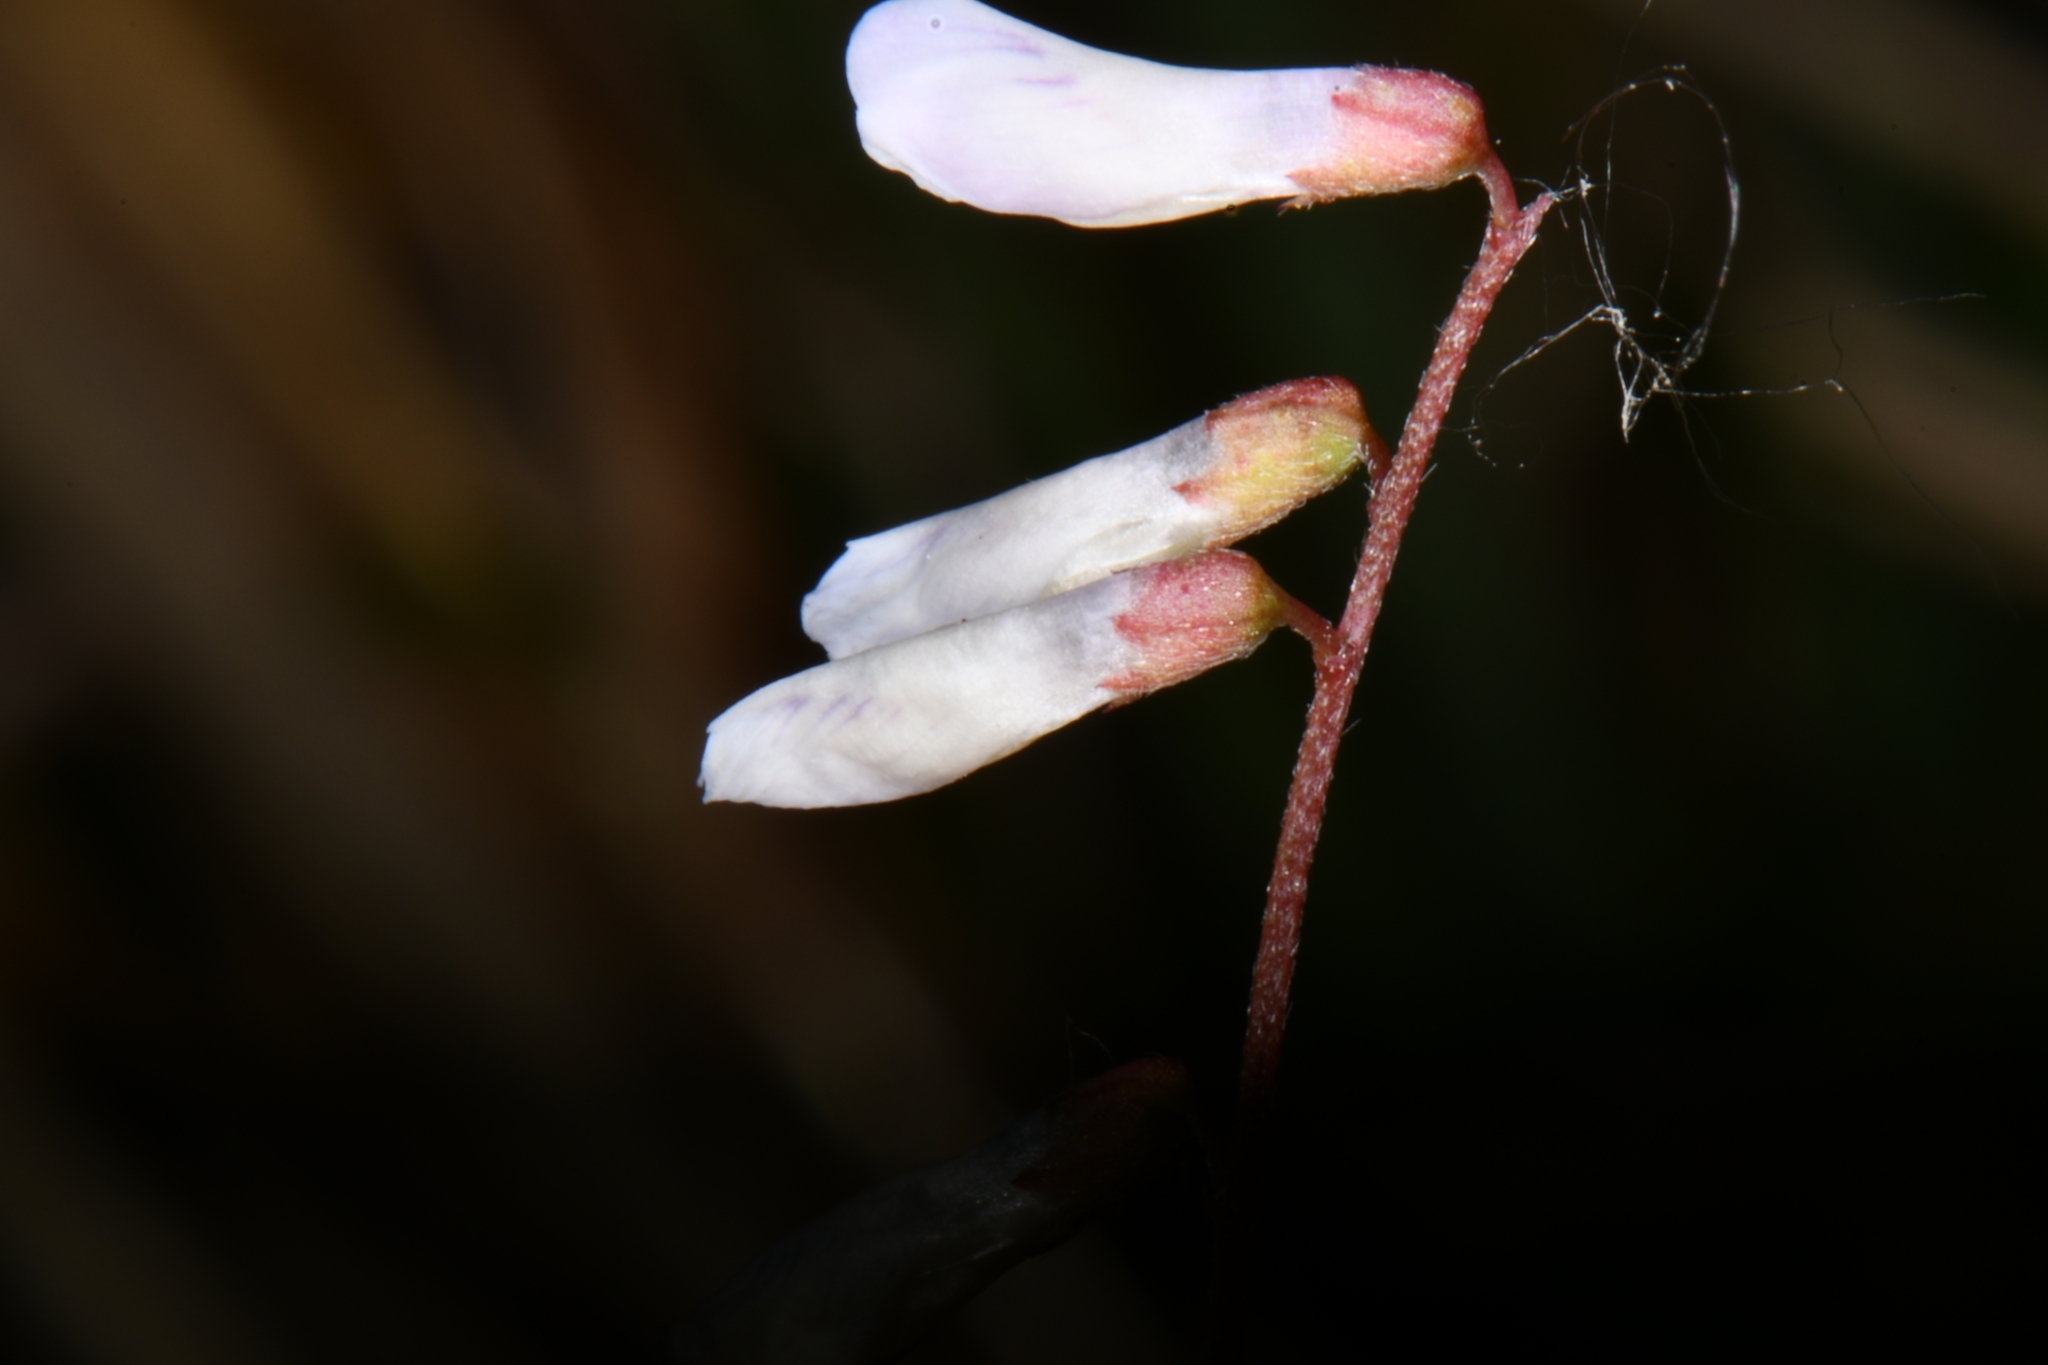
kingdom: Plantae
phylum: Tracheophyta
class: Magnoliopsida
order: Fabales
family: Fabaceae
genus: Vicia
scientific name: Vicia acutifolia
